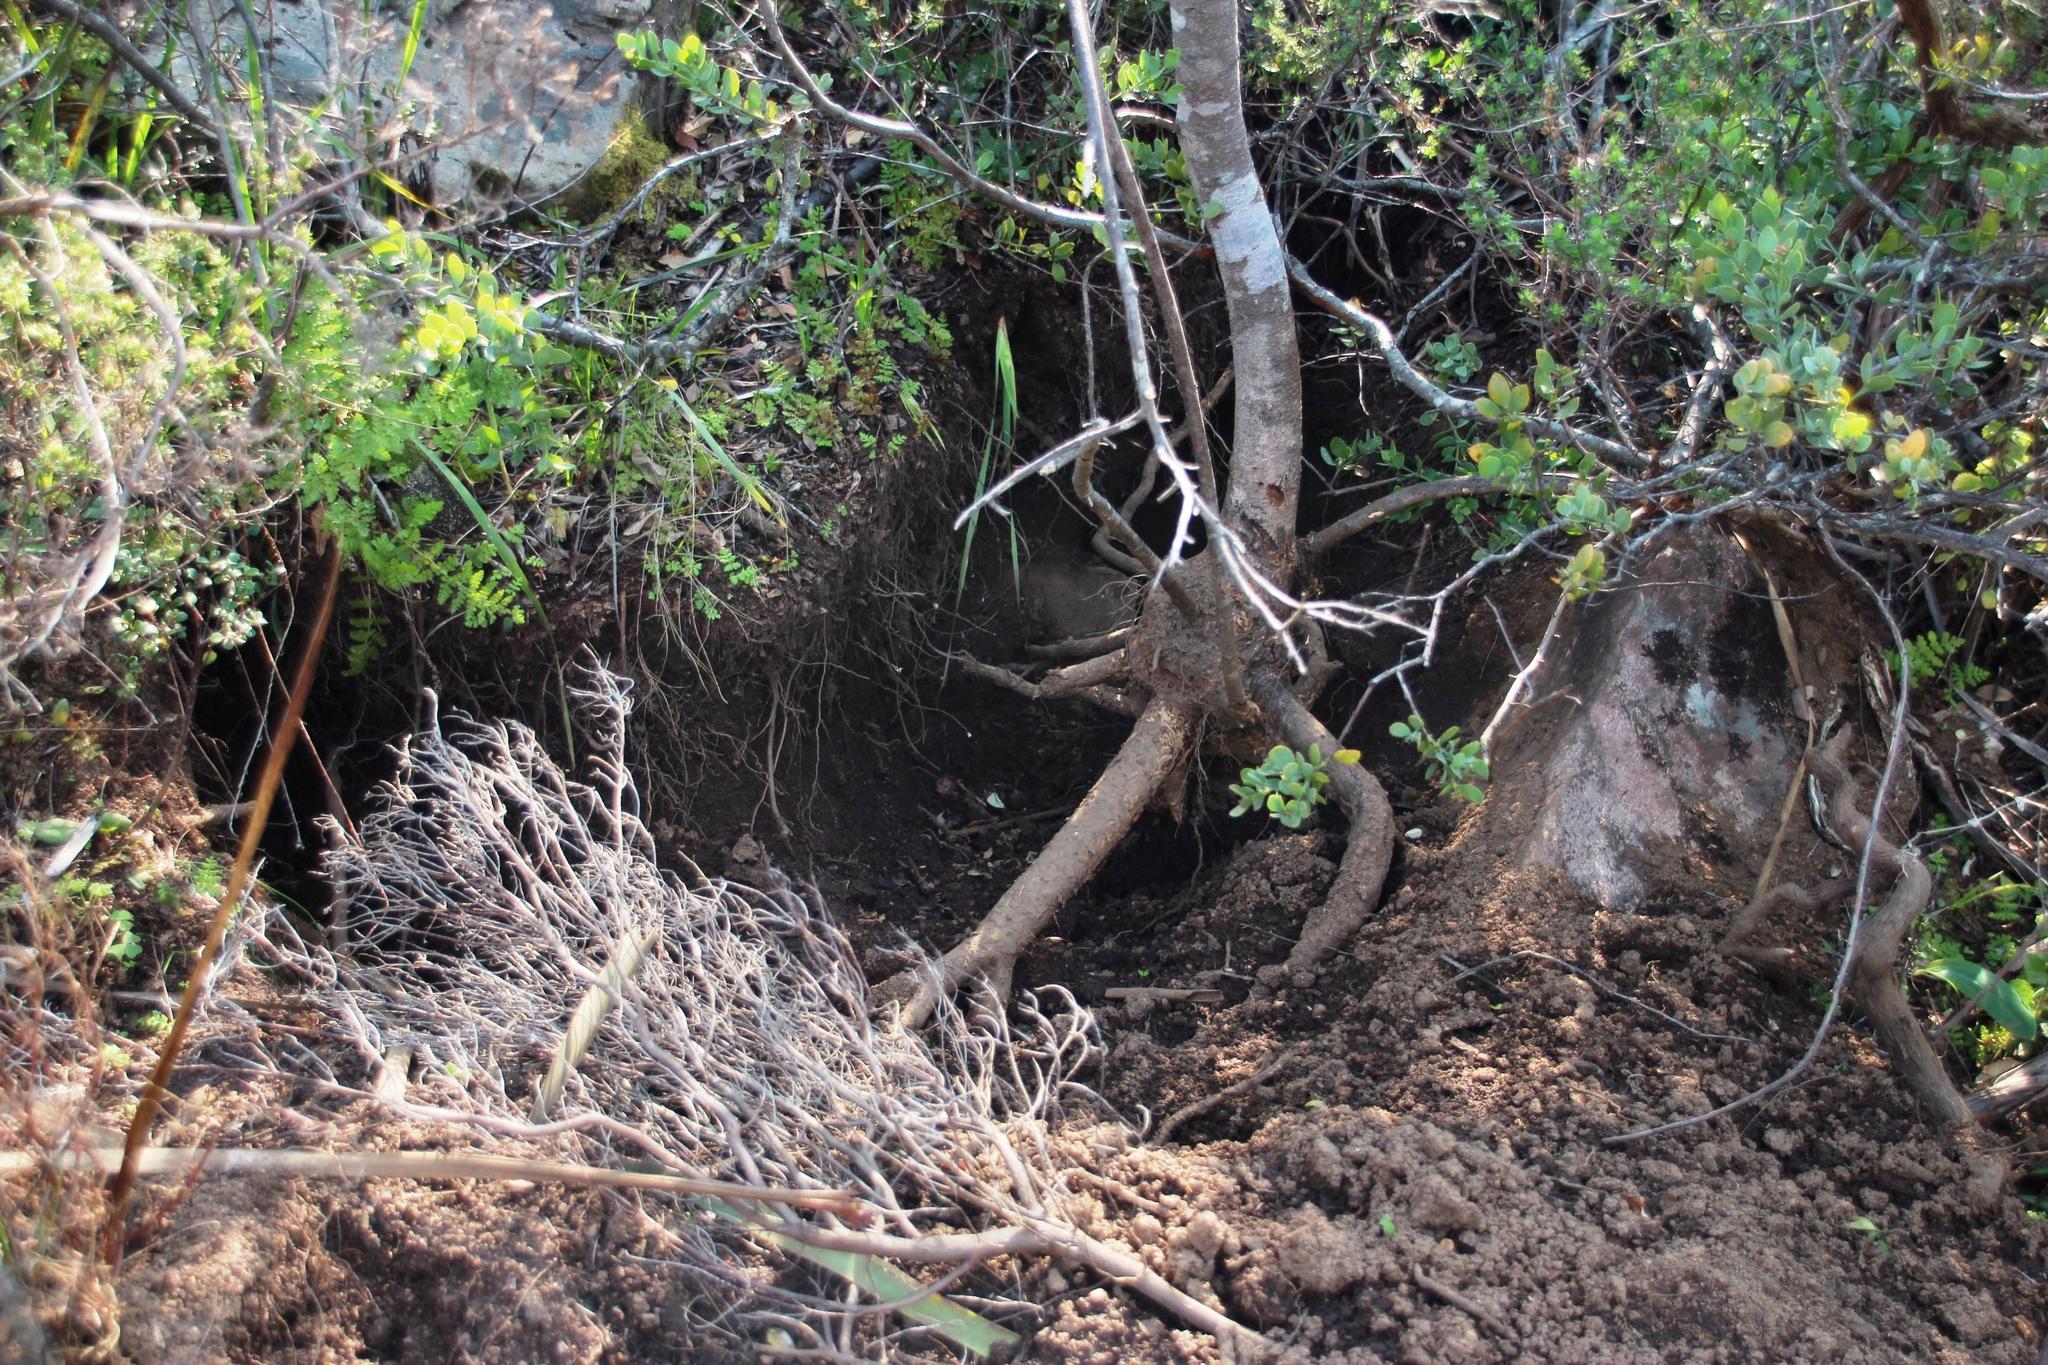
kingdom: Animalia
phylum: Chordata
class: Mammalia
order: Rodentia
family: Hystricidae
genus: Hystrix
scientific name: Hystrix africaeaustralis
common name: Cape porcupine
